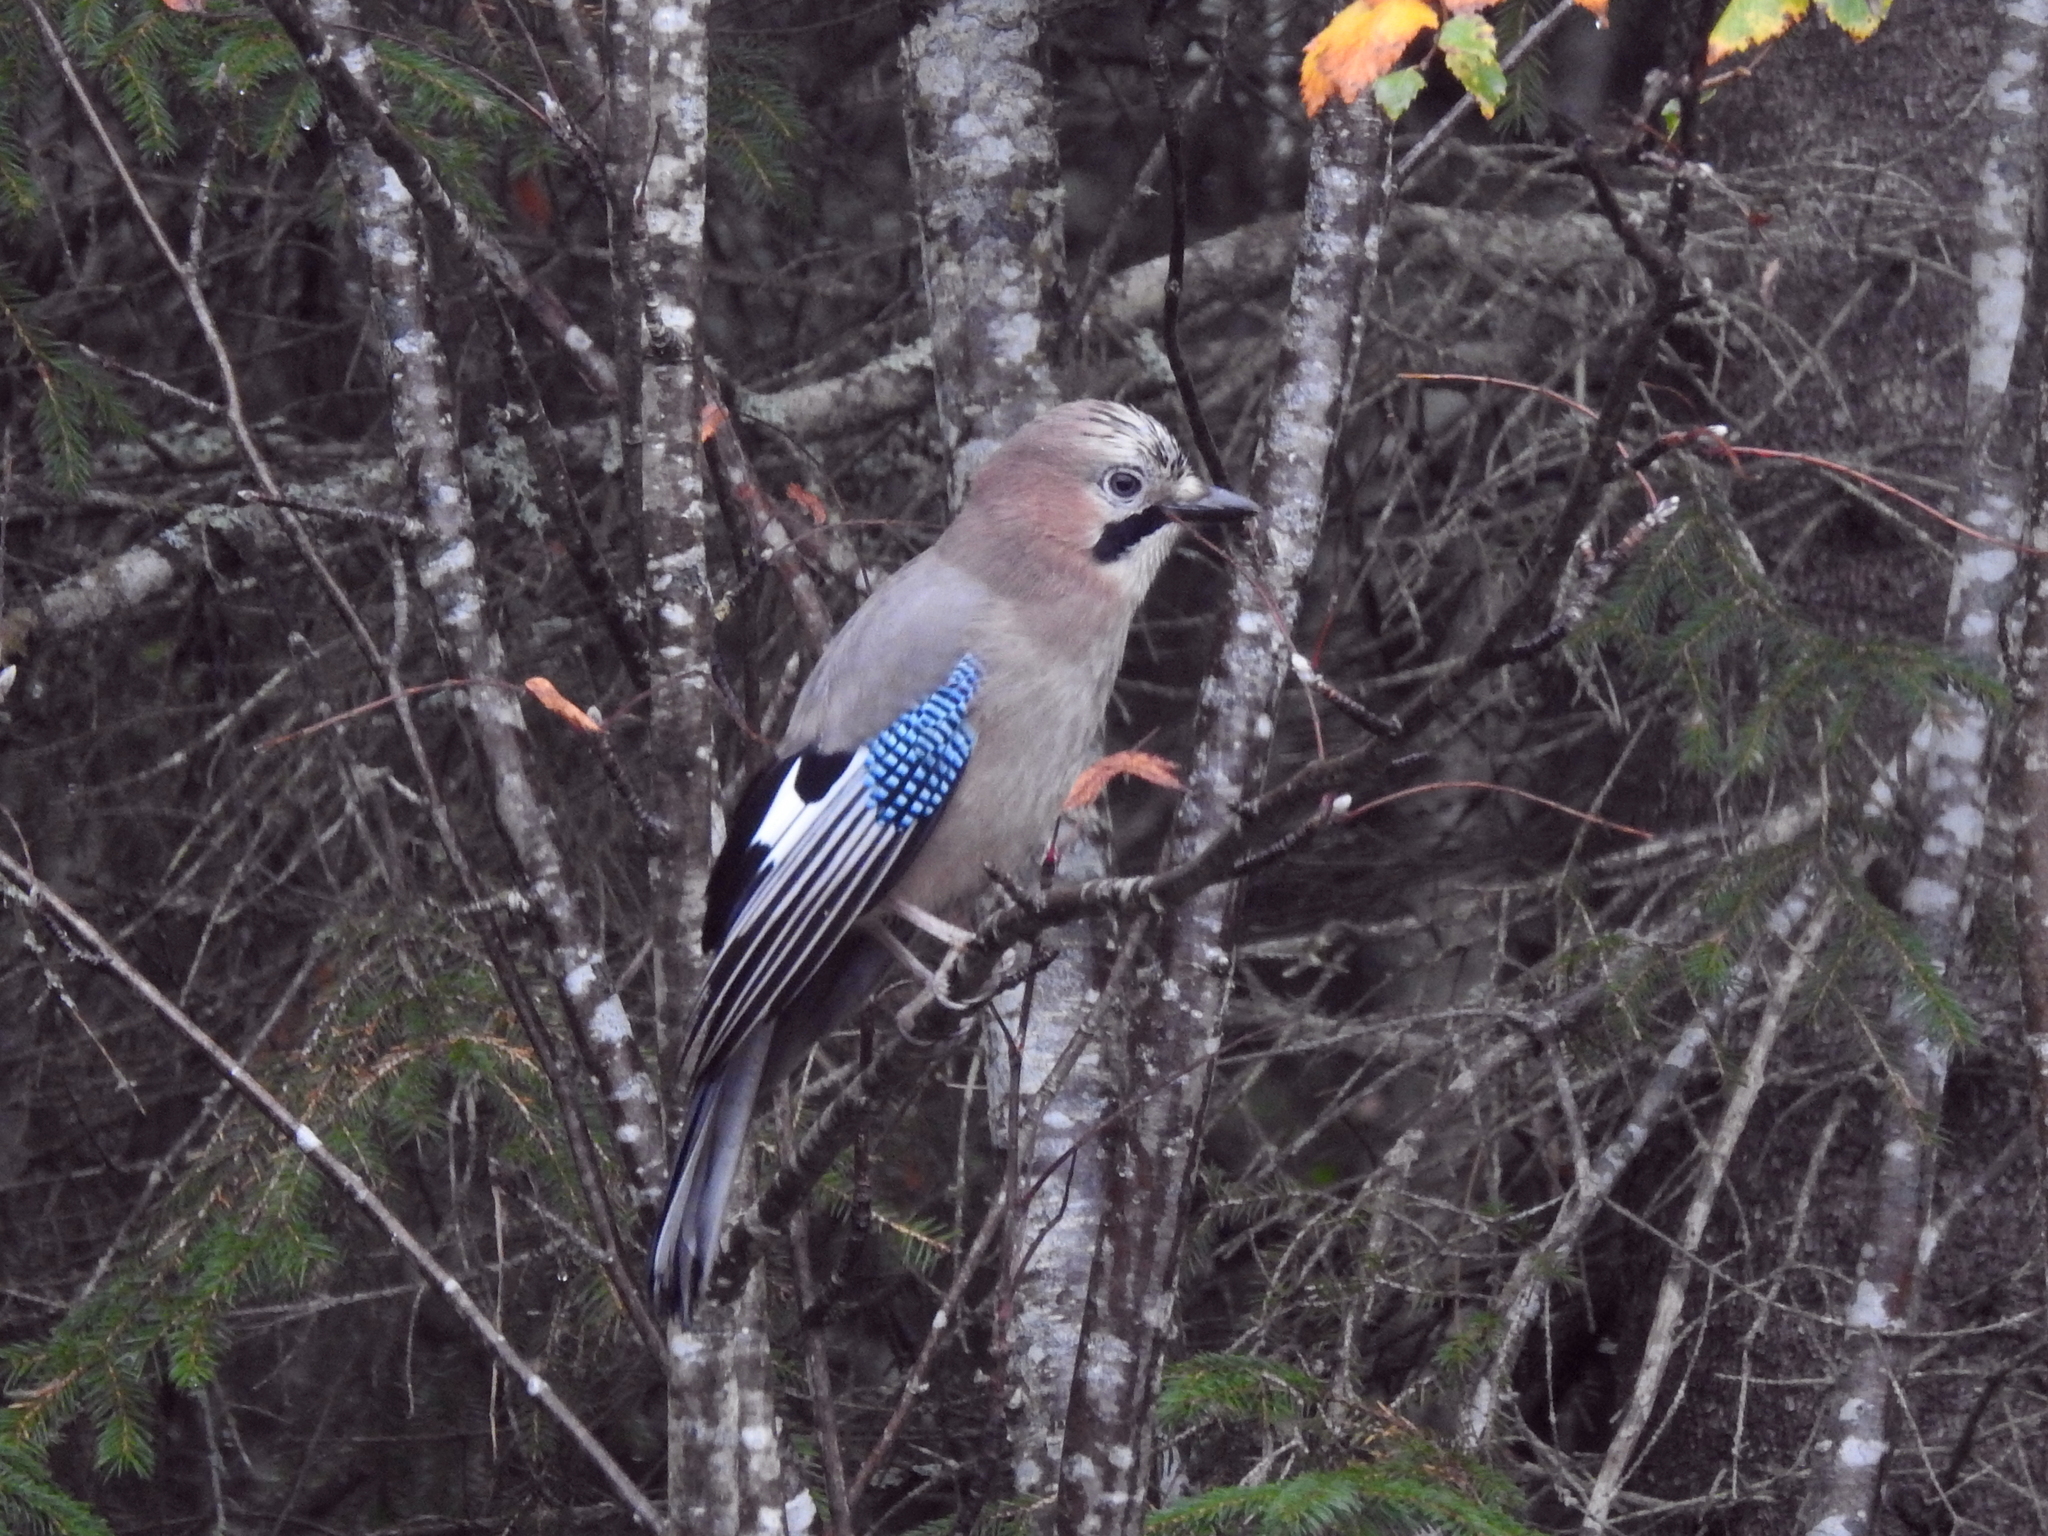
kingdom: Animalia
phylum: Chordata
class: Aves
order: Passeriformes
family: Corvidae
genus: Garrulus
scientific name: Garrulus glandarius
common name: Eurasian jay
